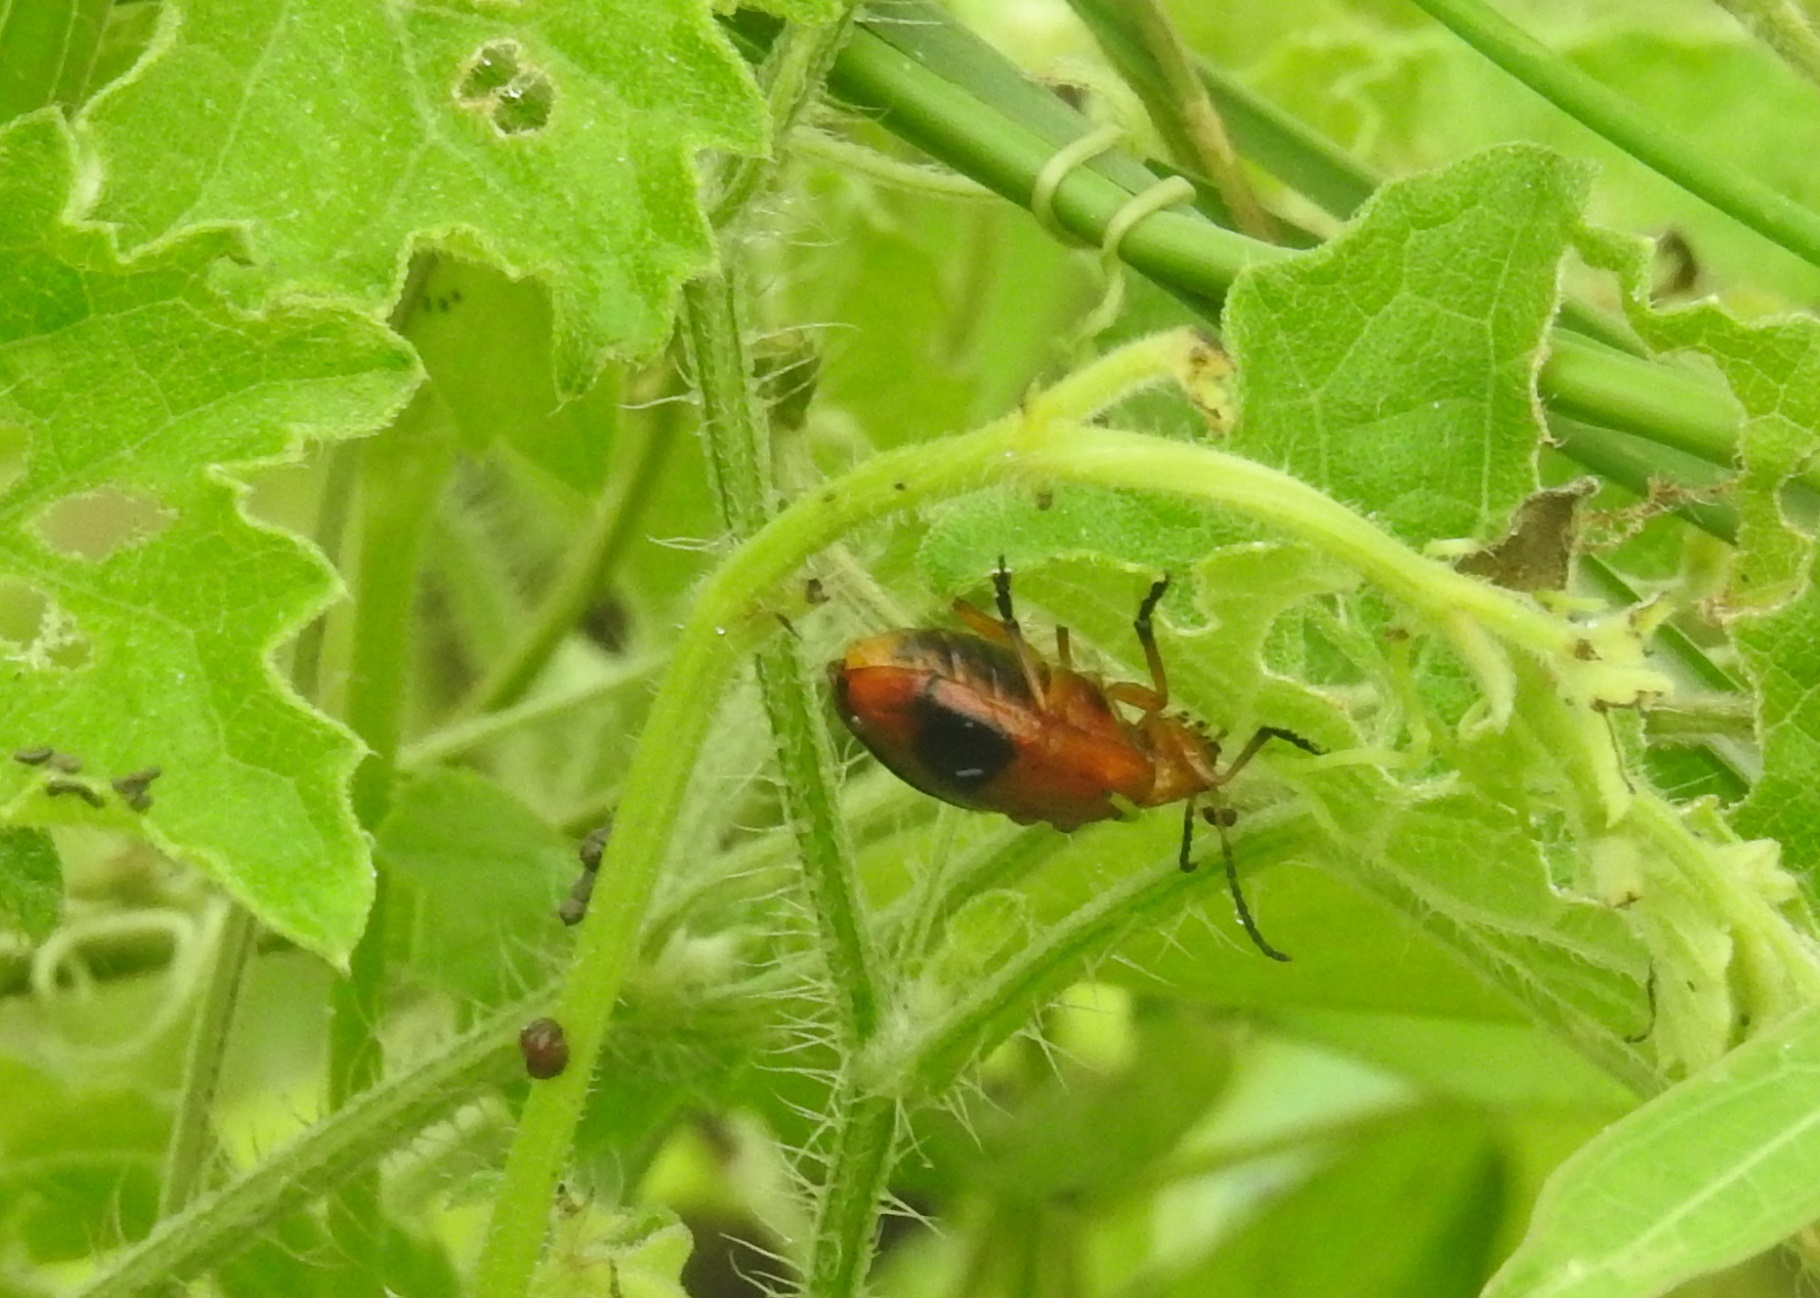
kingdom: Animalia
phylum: Arthropoda
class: Insecta
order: Coleoptera
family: Chrysomelidae
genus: Oides
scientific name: Oides palleata
